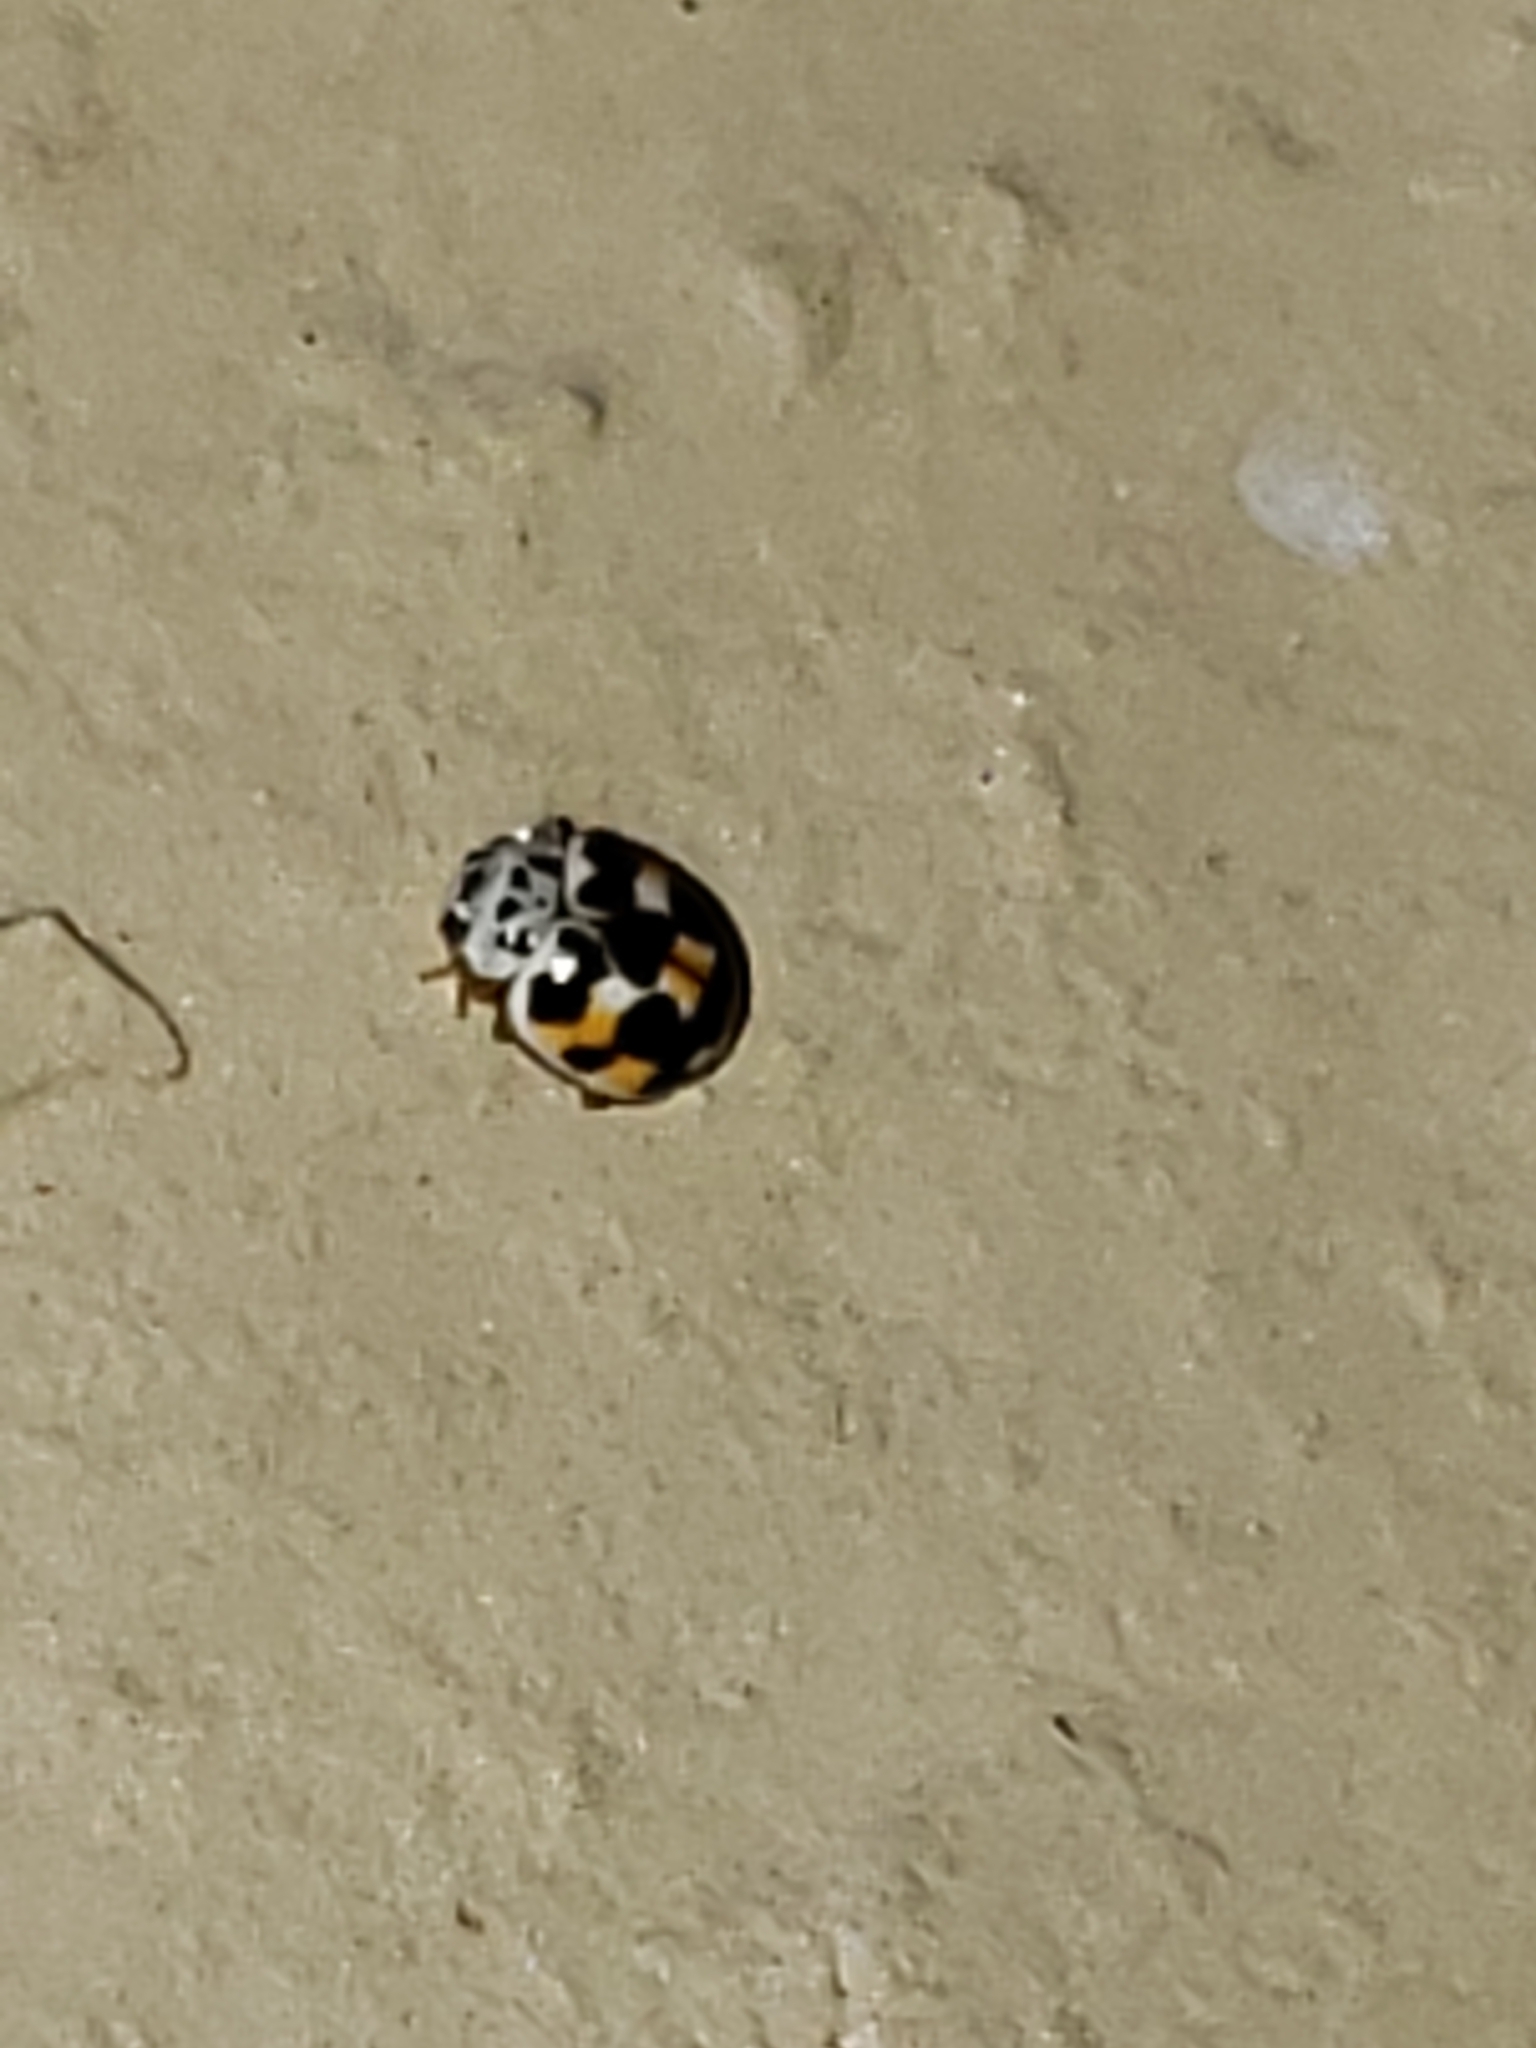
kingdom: Animalia
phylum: Arthropoda
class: Insecta
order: Coleoptera
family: Coccinellidae
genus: Psyllobora
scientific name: Psyllobora vigintimaculata
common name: Ladybird beetle
